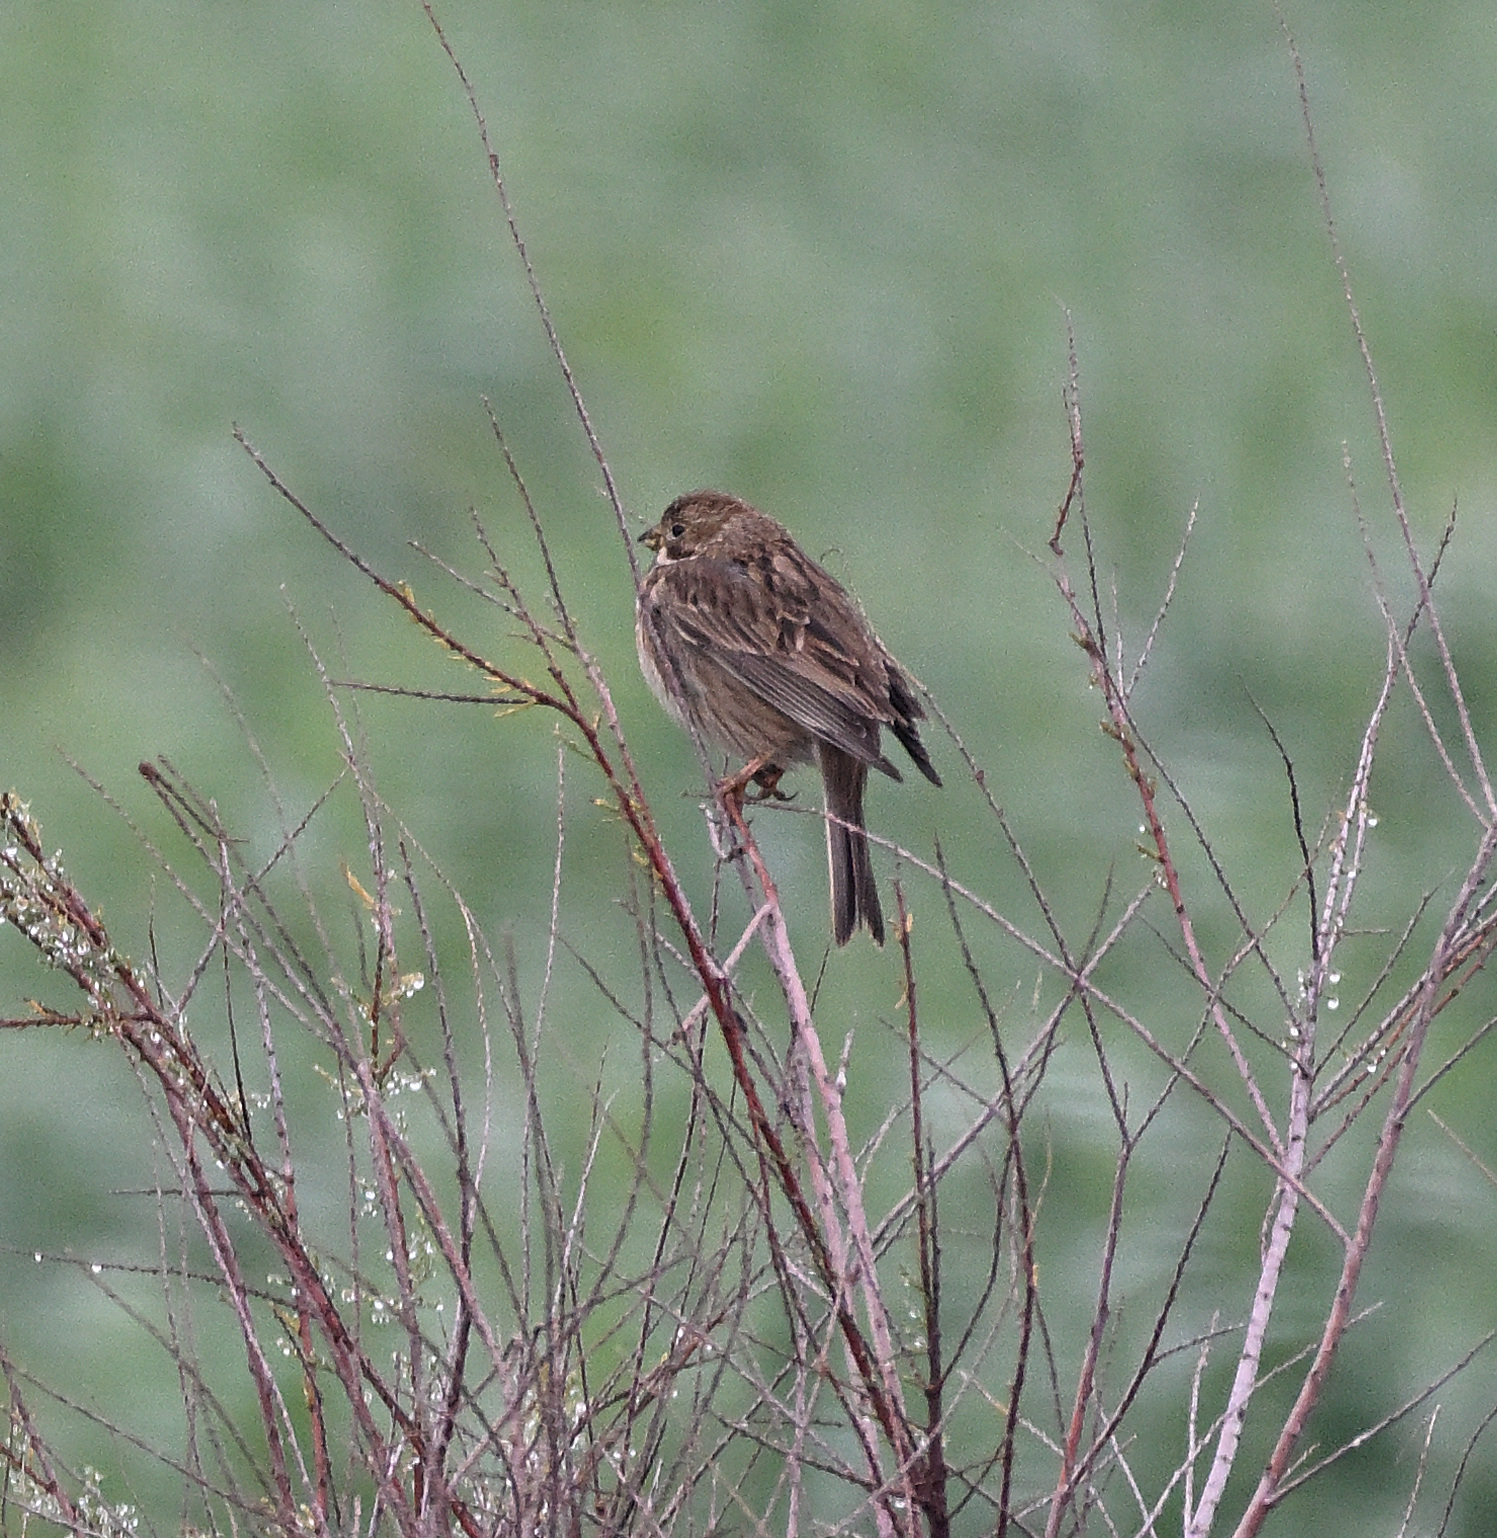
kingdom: Animalia
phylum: Chordata
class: Aves
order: Passeriformes
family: Emberizidae
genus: Emberiza
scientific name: Emberiza calandra
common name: Corn bunting
